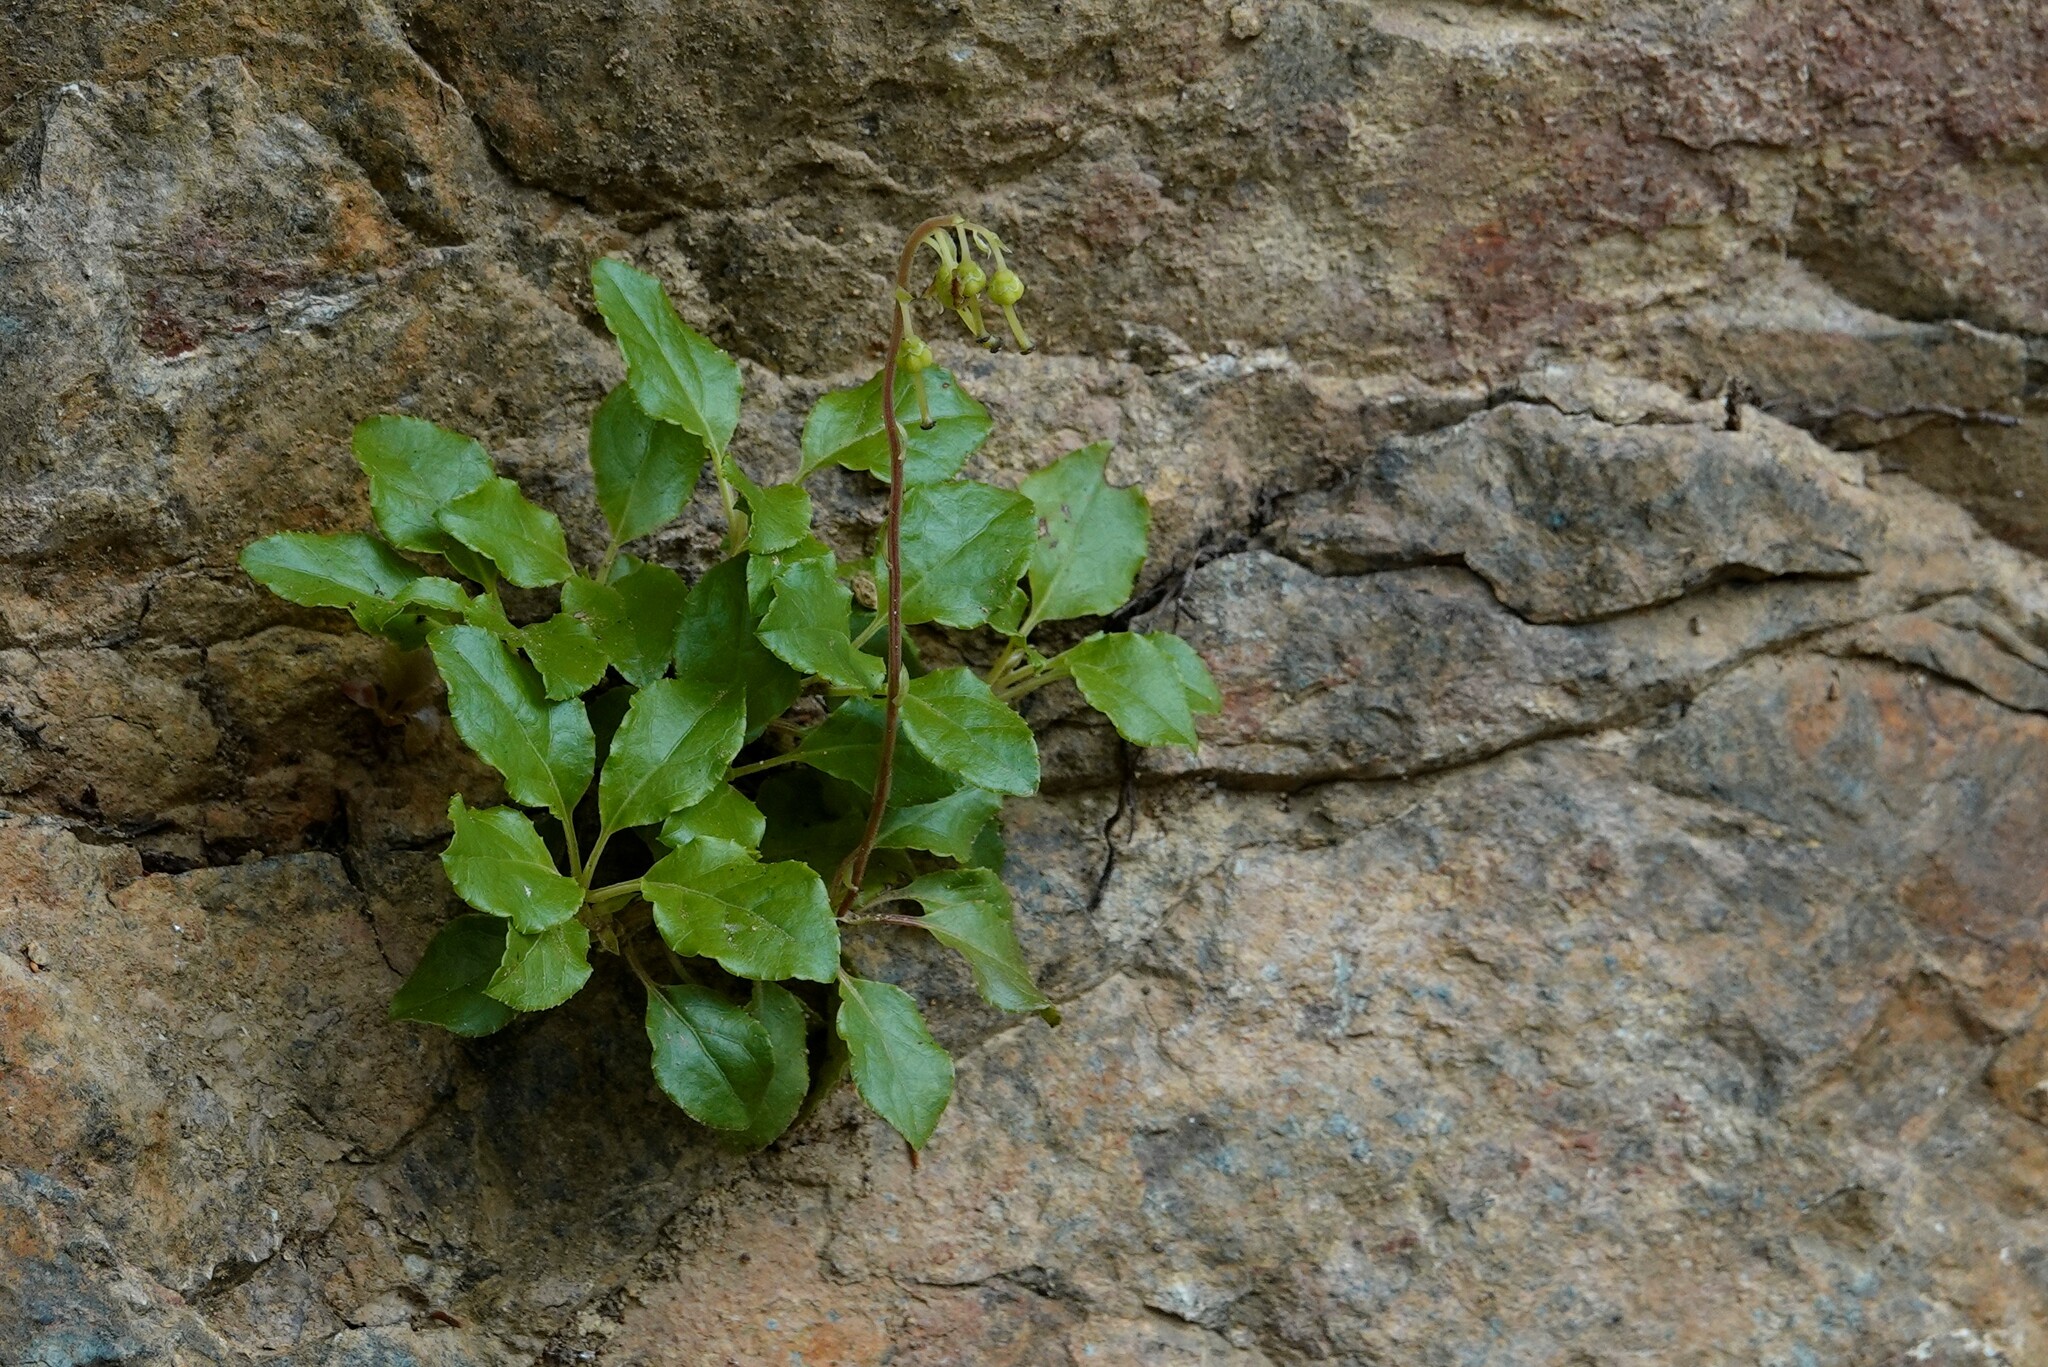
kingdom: Plantae
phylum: Tracheophyta
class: Magnoliopsida
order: Ericales
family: Ericaceae
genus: Orthilia
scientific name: Orthilia secunda
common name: One-sided orthilia
